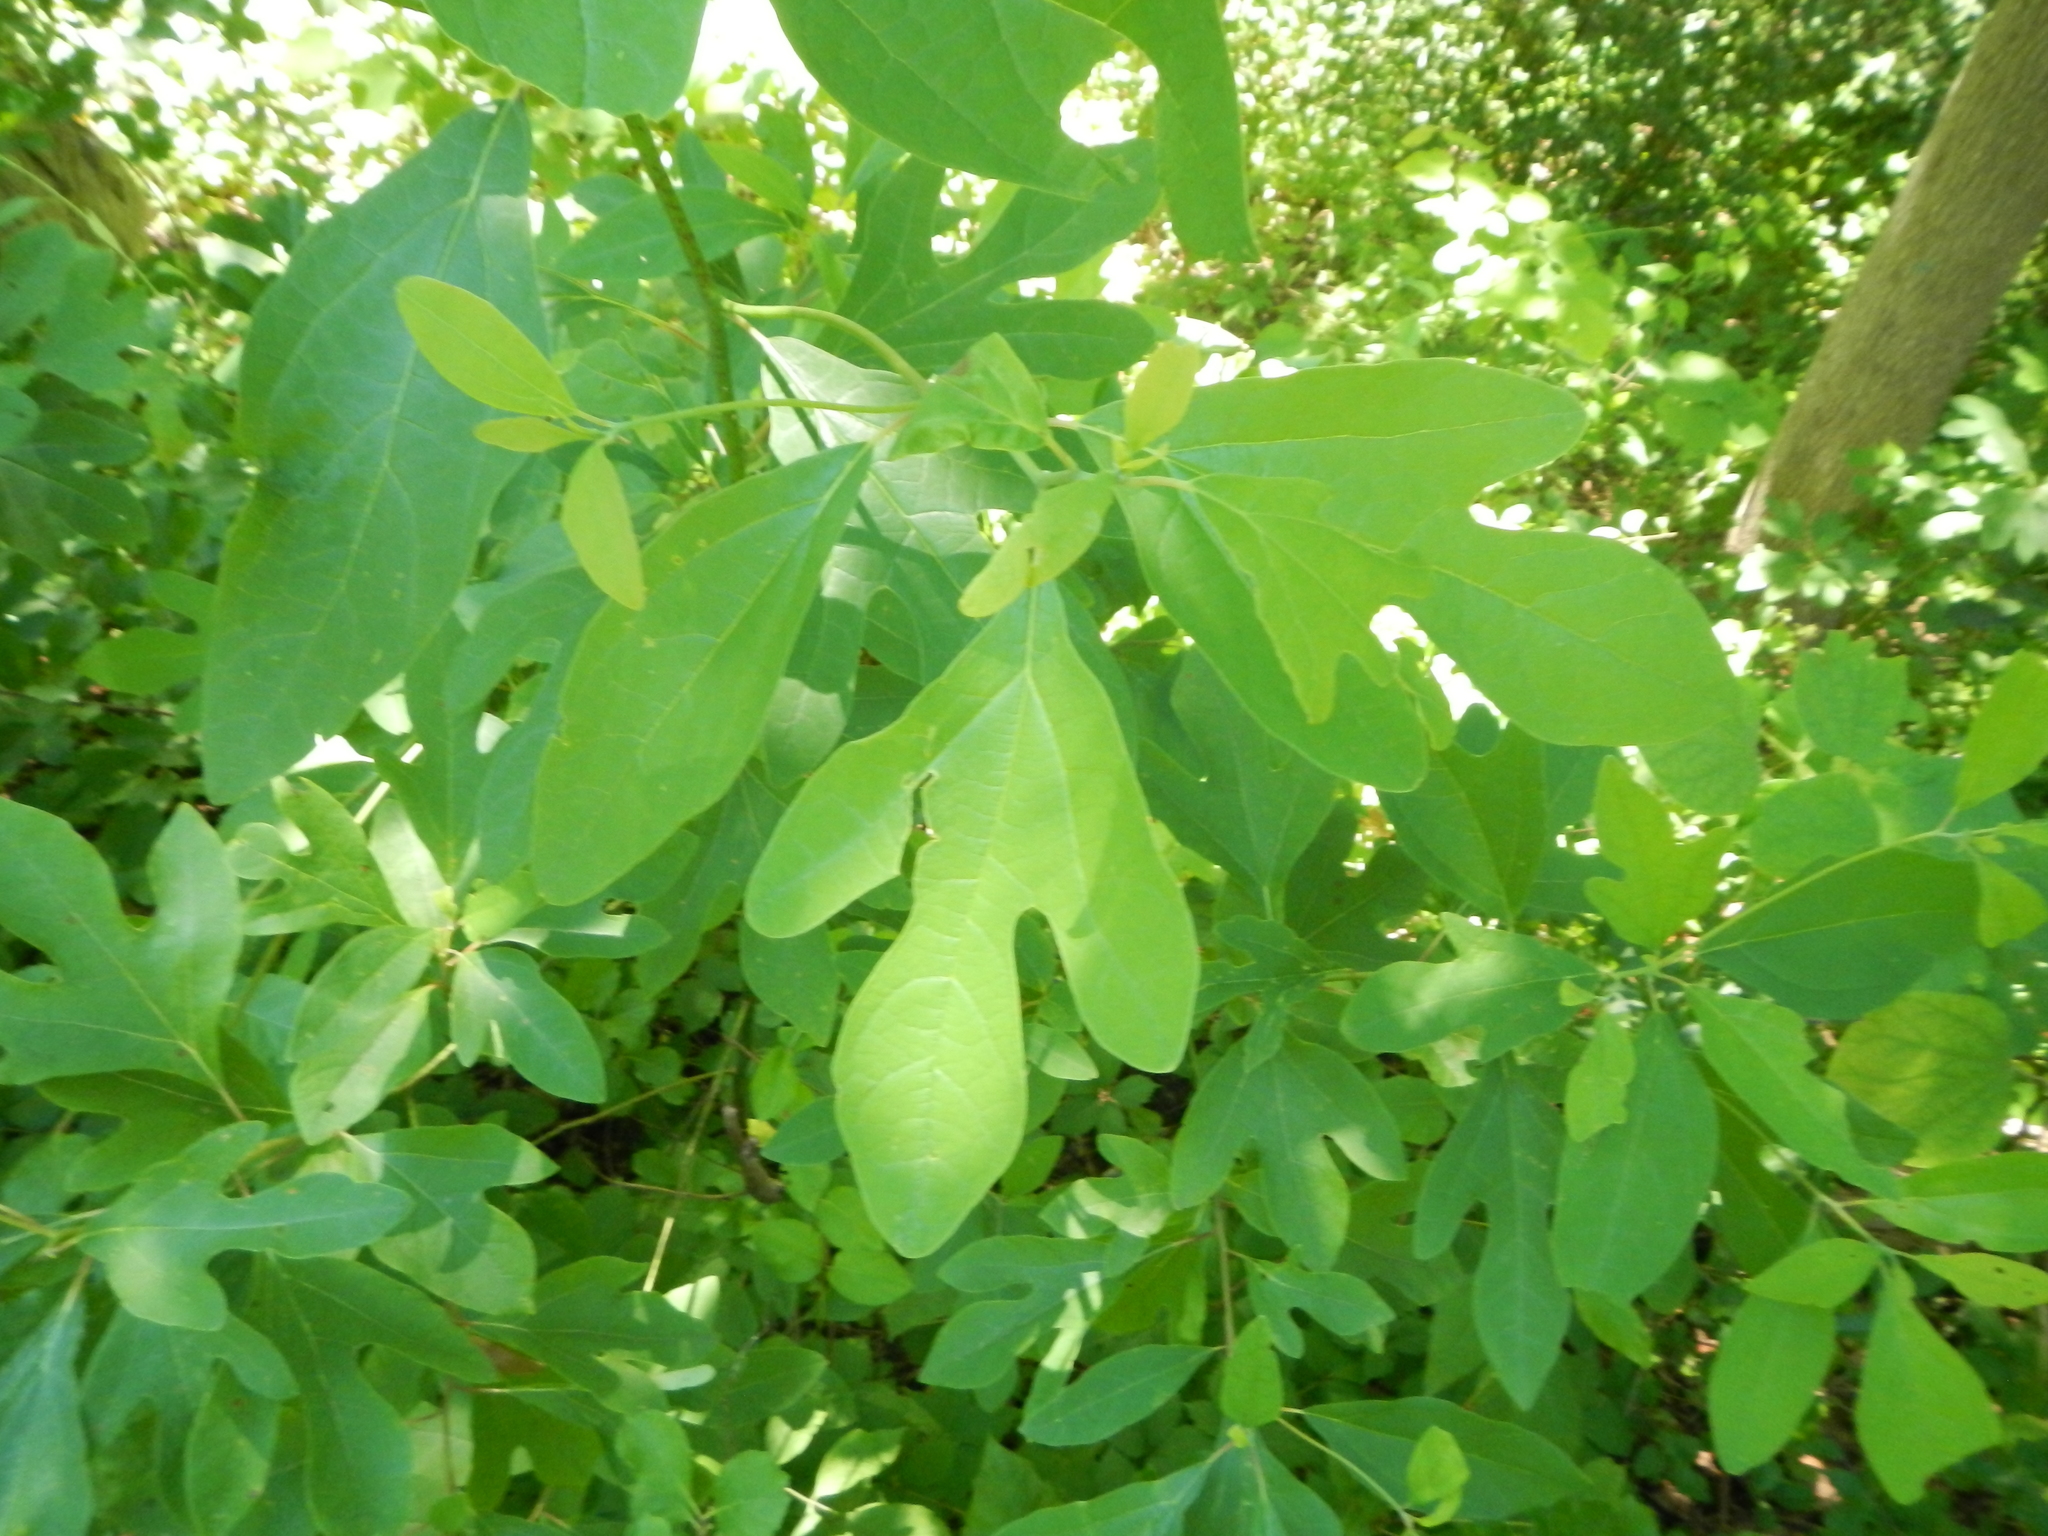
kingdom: Plantae
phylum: Tracheophyta
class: Magnoliopsida
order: Laurales
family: Lauraceae
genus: Sassafras
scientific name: Sassafras albidum
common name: Sassafras
